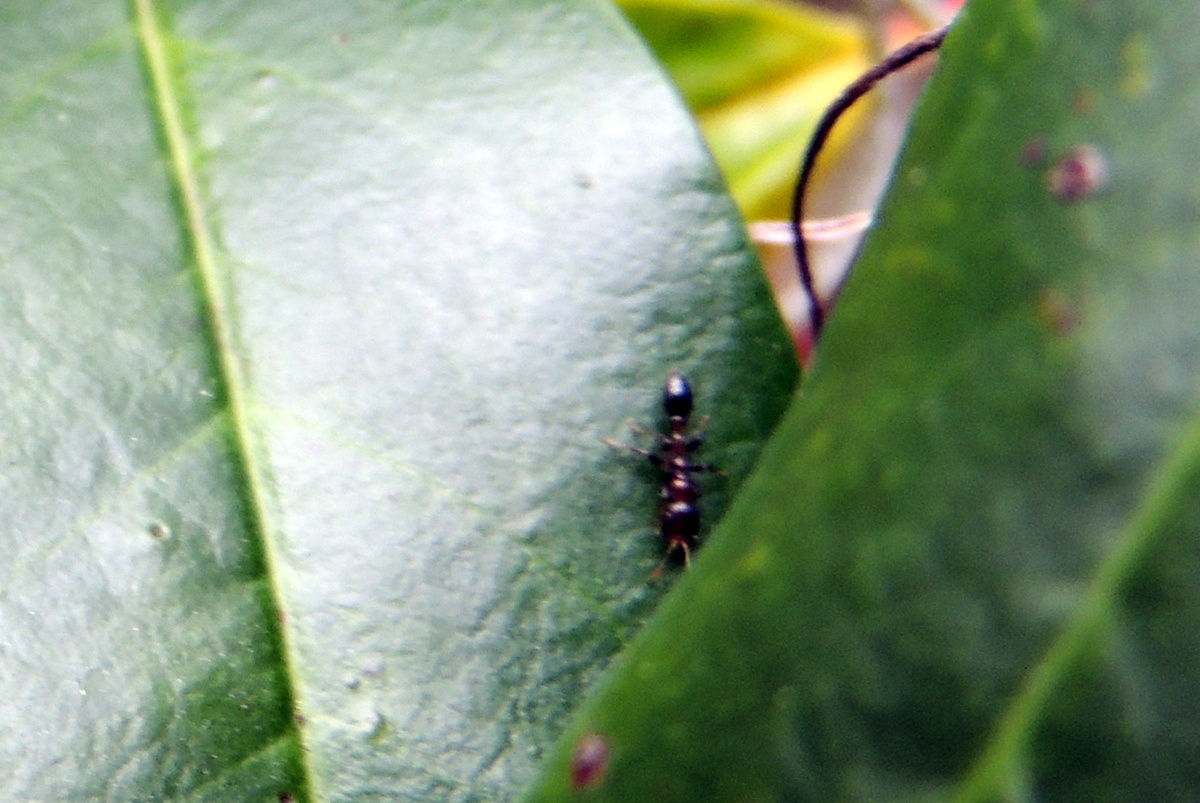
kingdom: Animalia
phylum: Arthropoda
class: Insecta
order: Hymenoptera
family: Formicidae
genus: Pseudomyrmex
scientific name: Pseudomyrmex ejectus
